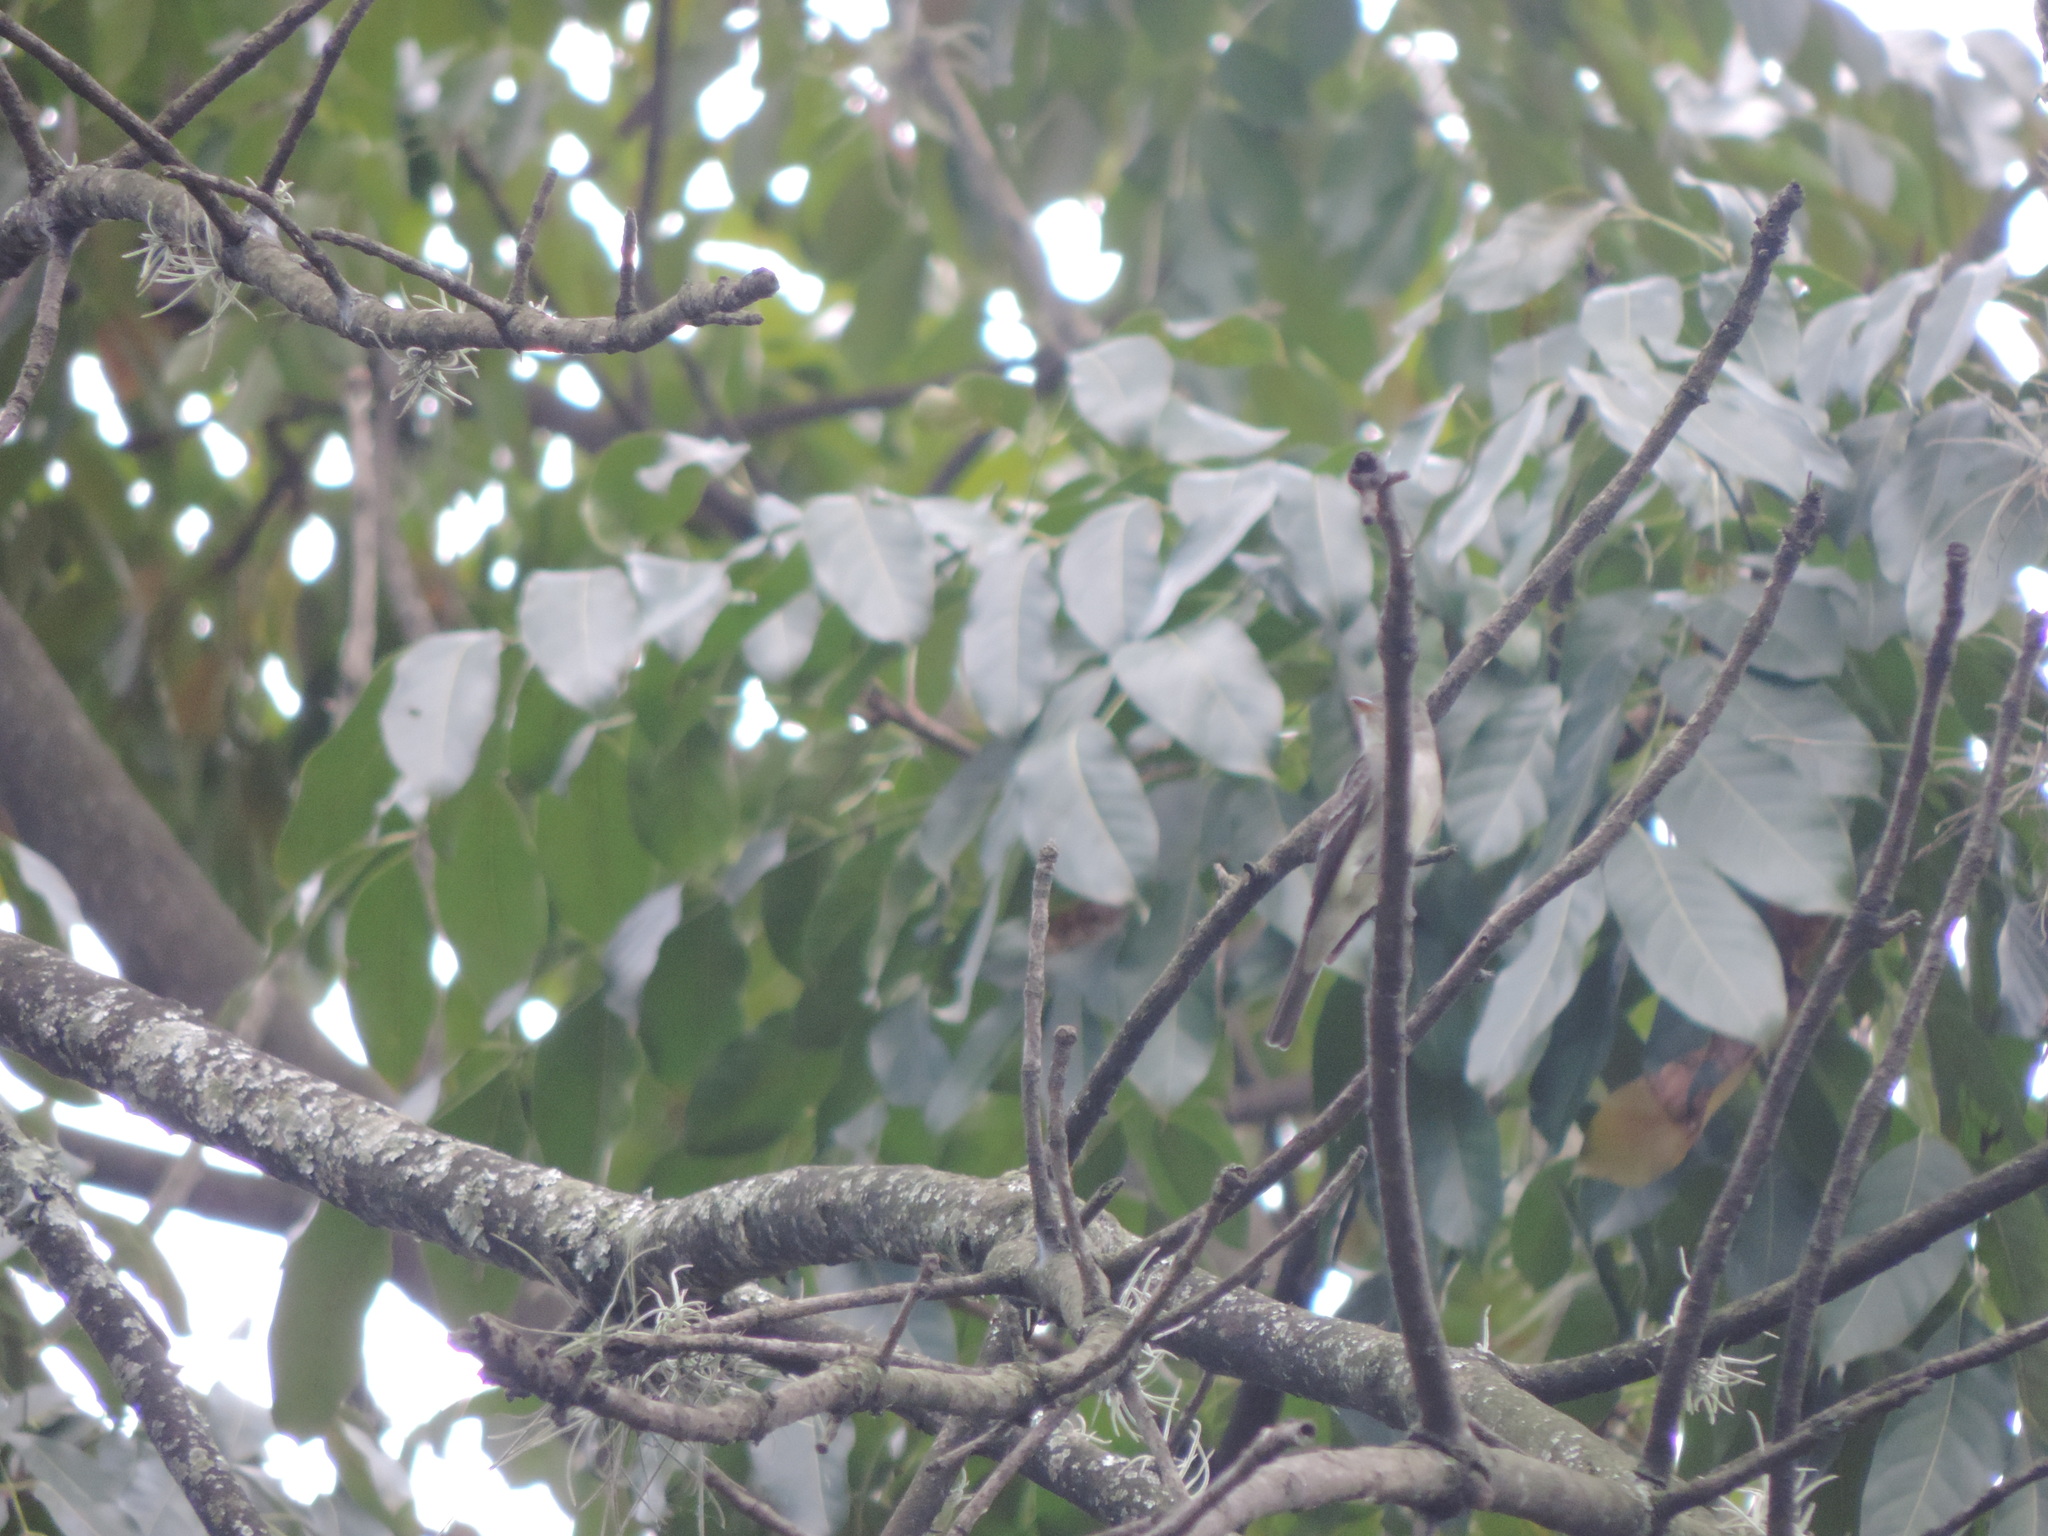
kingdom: Animalia
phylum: Chordata
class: Aves
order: Passeriformes
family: Tyrannidae
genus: Contopus
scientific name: Contopus virens
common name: Eastern wood-pewee
